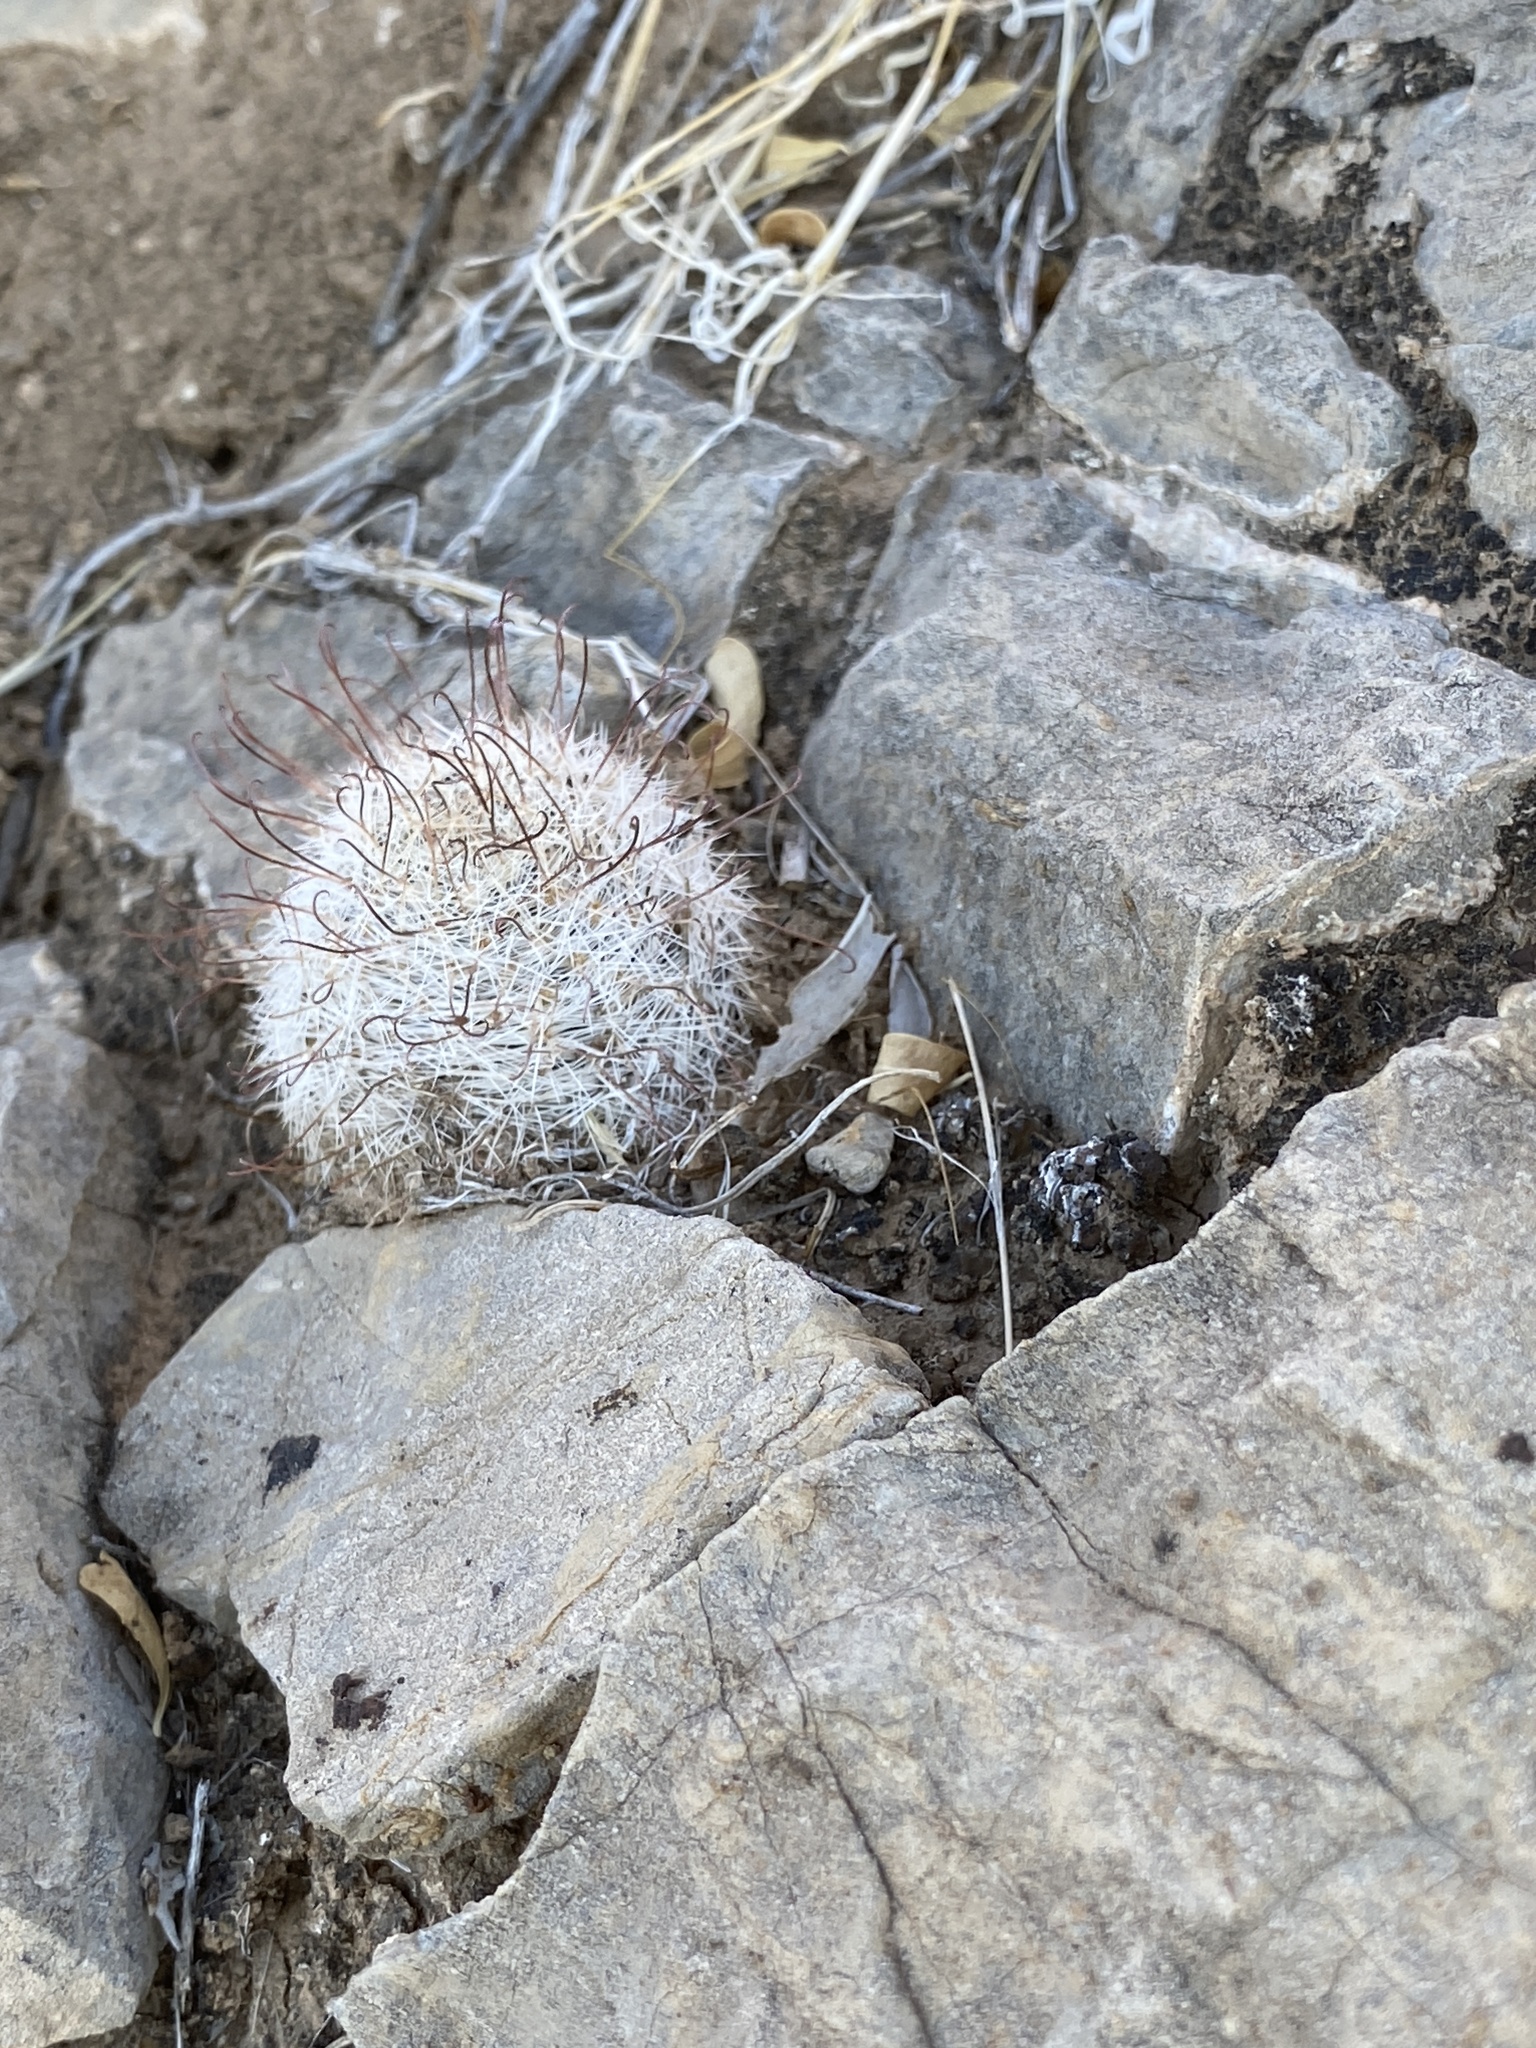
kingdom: Plantae
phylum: Tracheophyta
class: Magnoliopsida
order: Caryophyllales
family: Cactaceae
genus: Cochemiea
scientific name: Cochemiea grahamii
